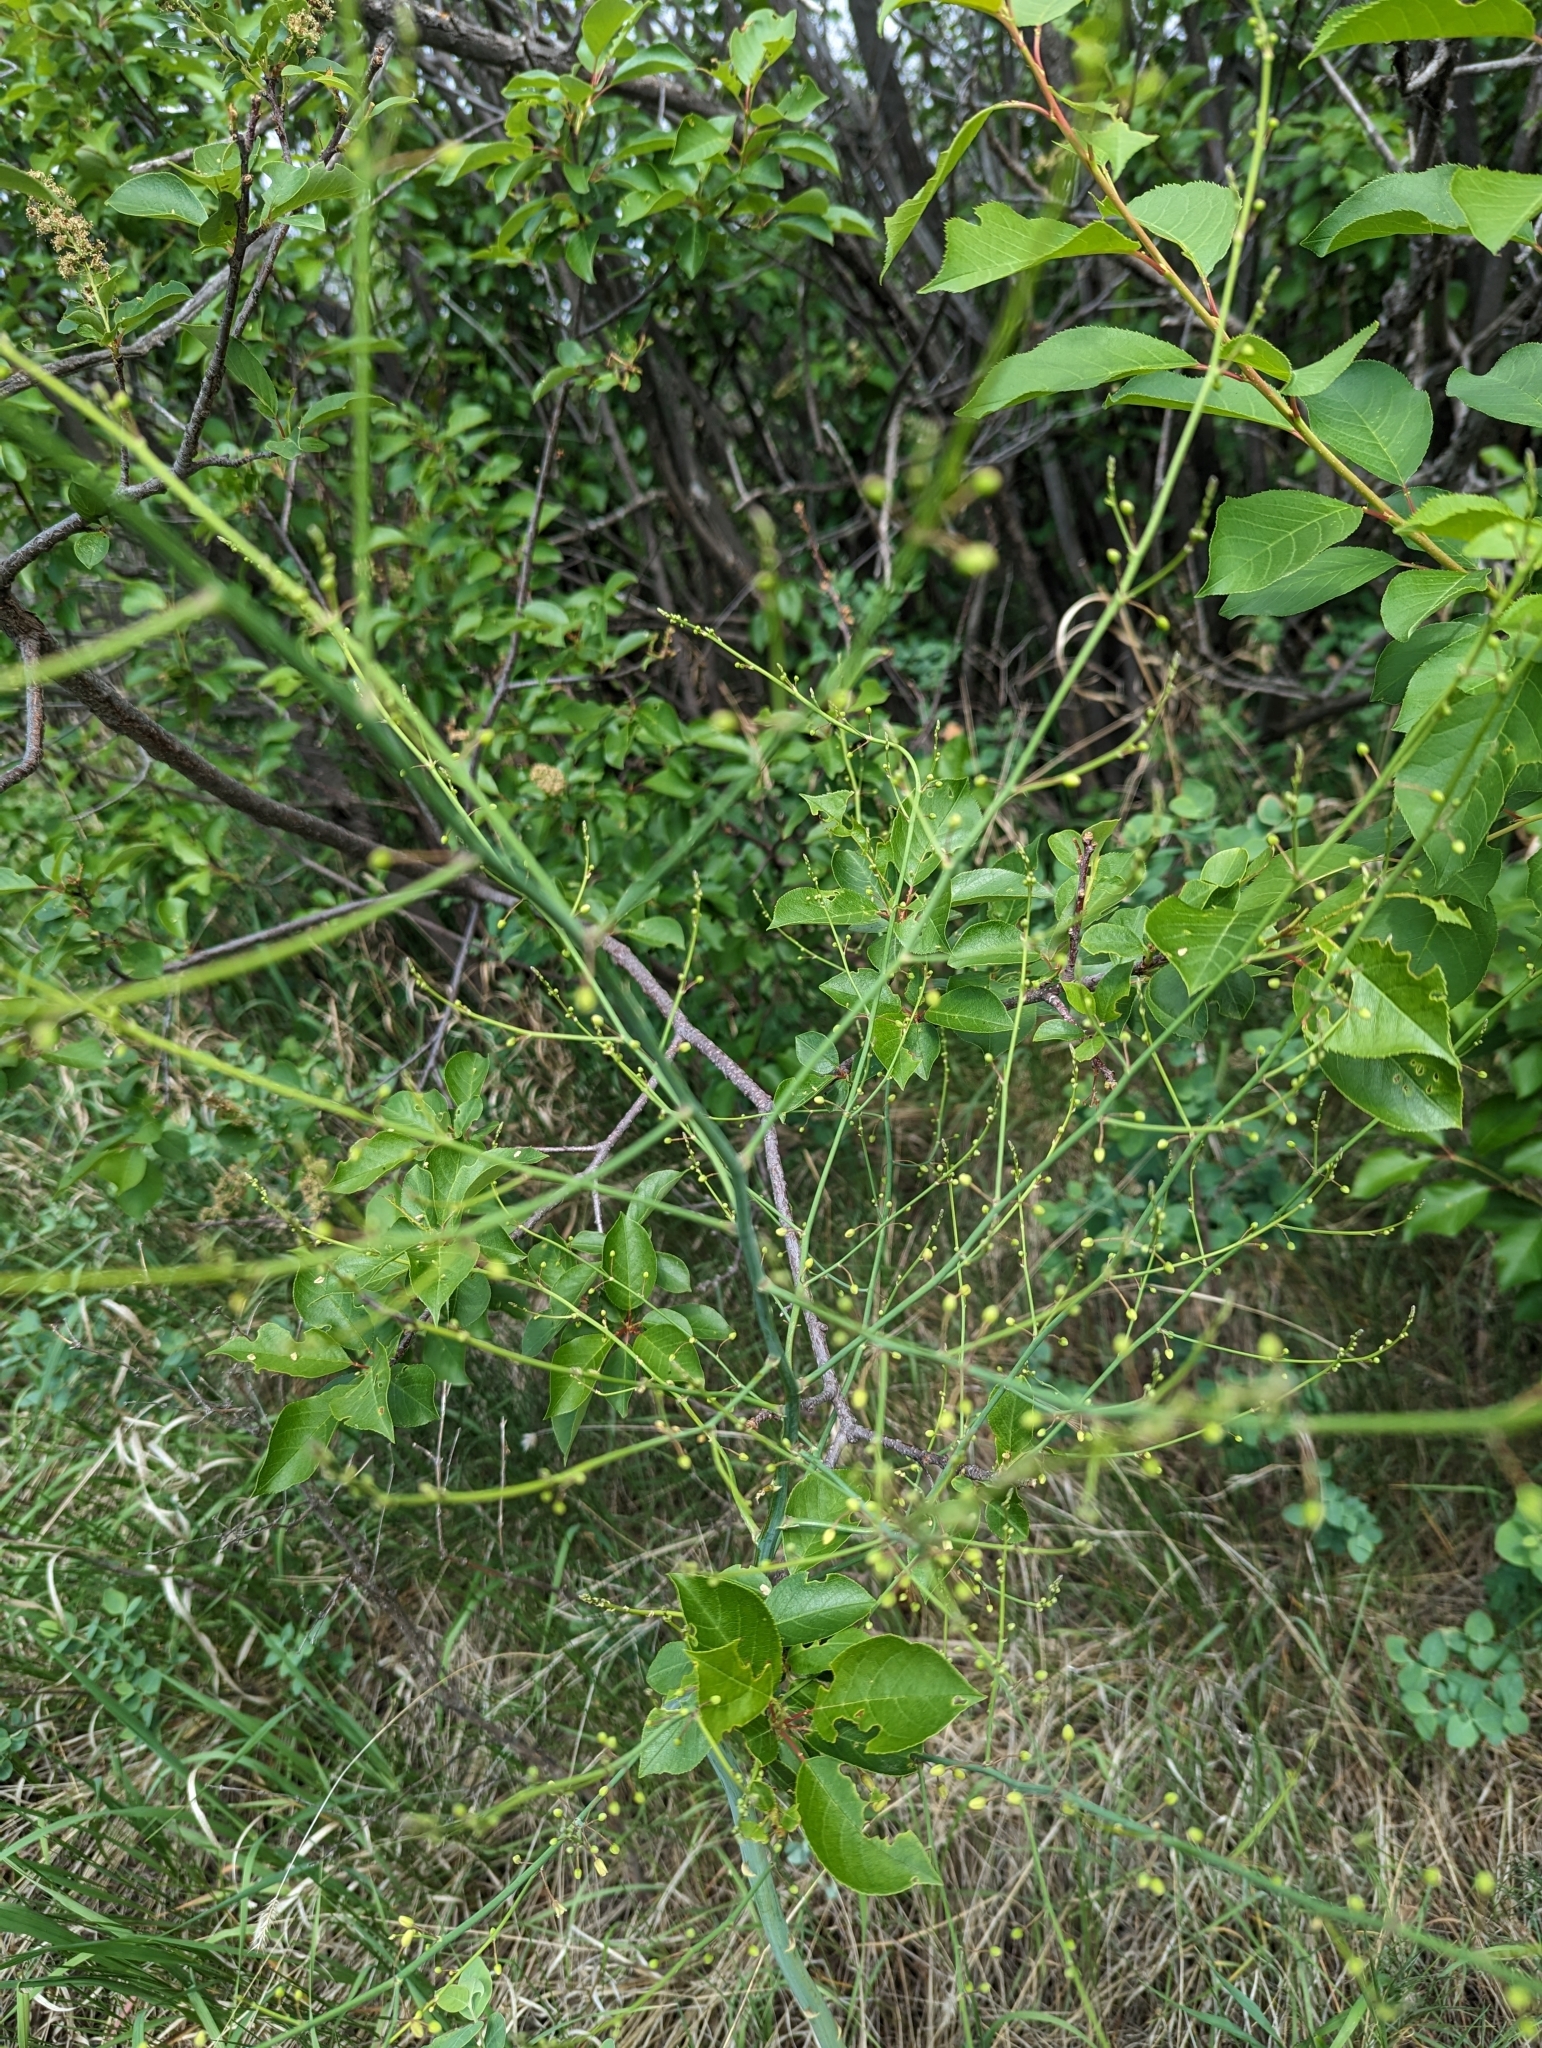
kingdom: Plantae
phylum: Tracheophyta
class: Liliopsida
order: Asparagales
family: Asparagaceae
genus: Asparagus
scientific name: Asparagus officinalis
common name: Garden asparagus
